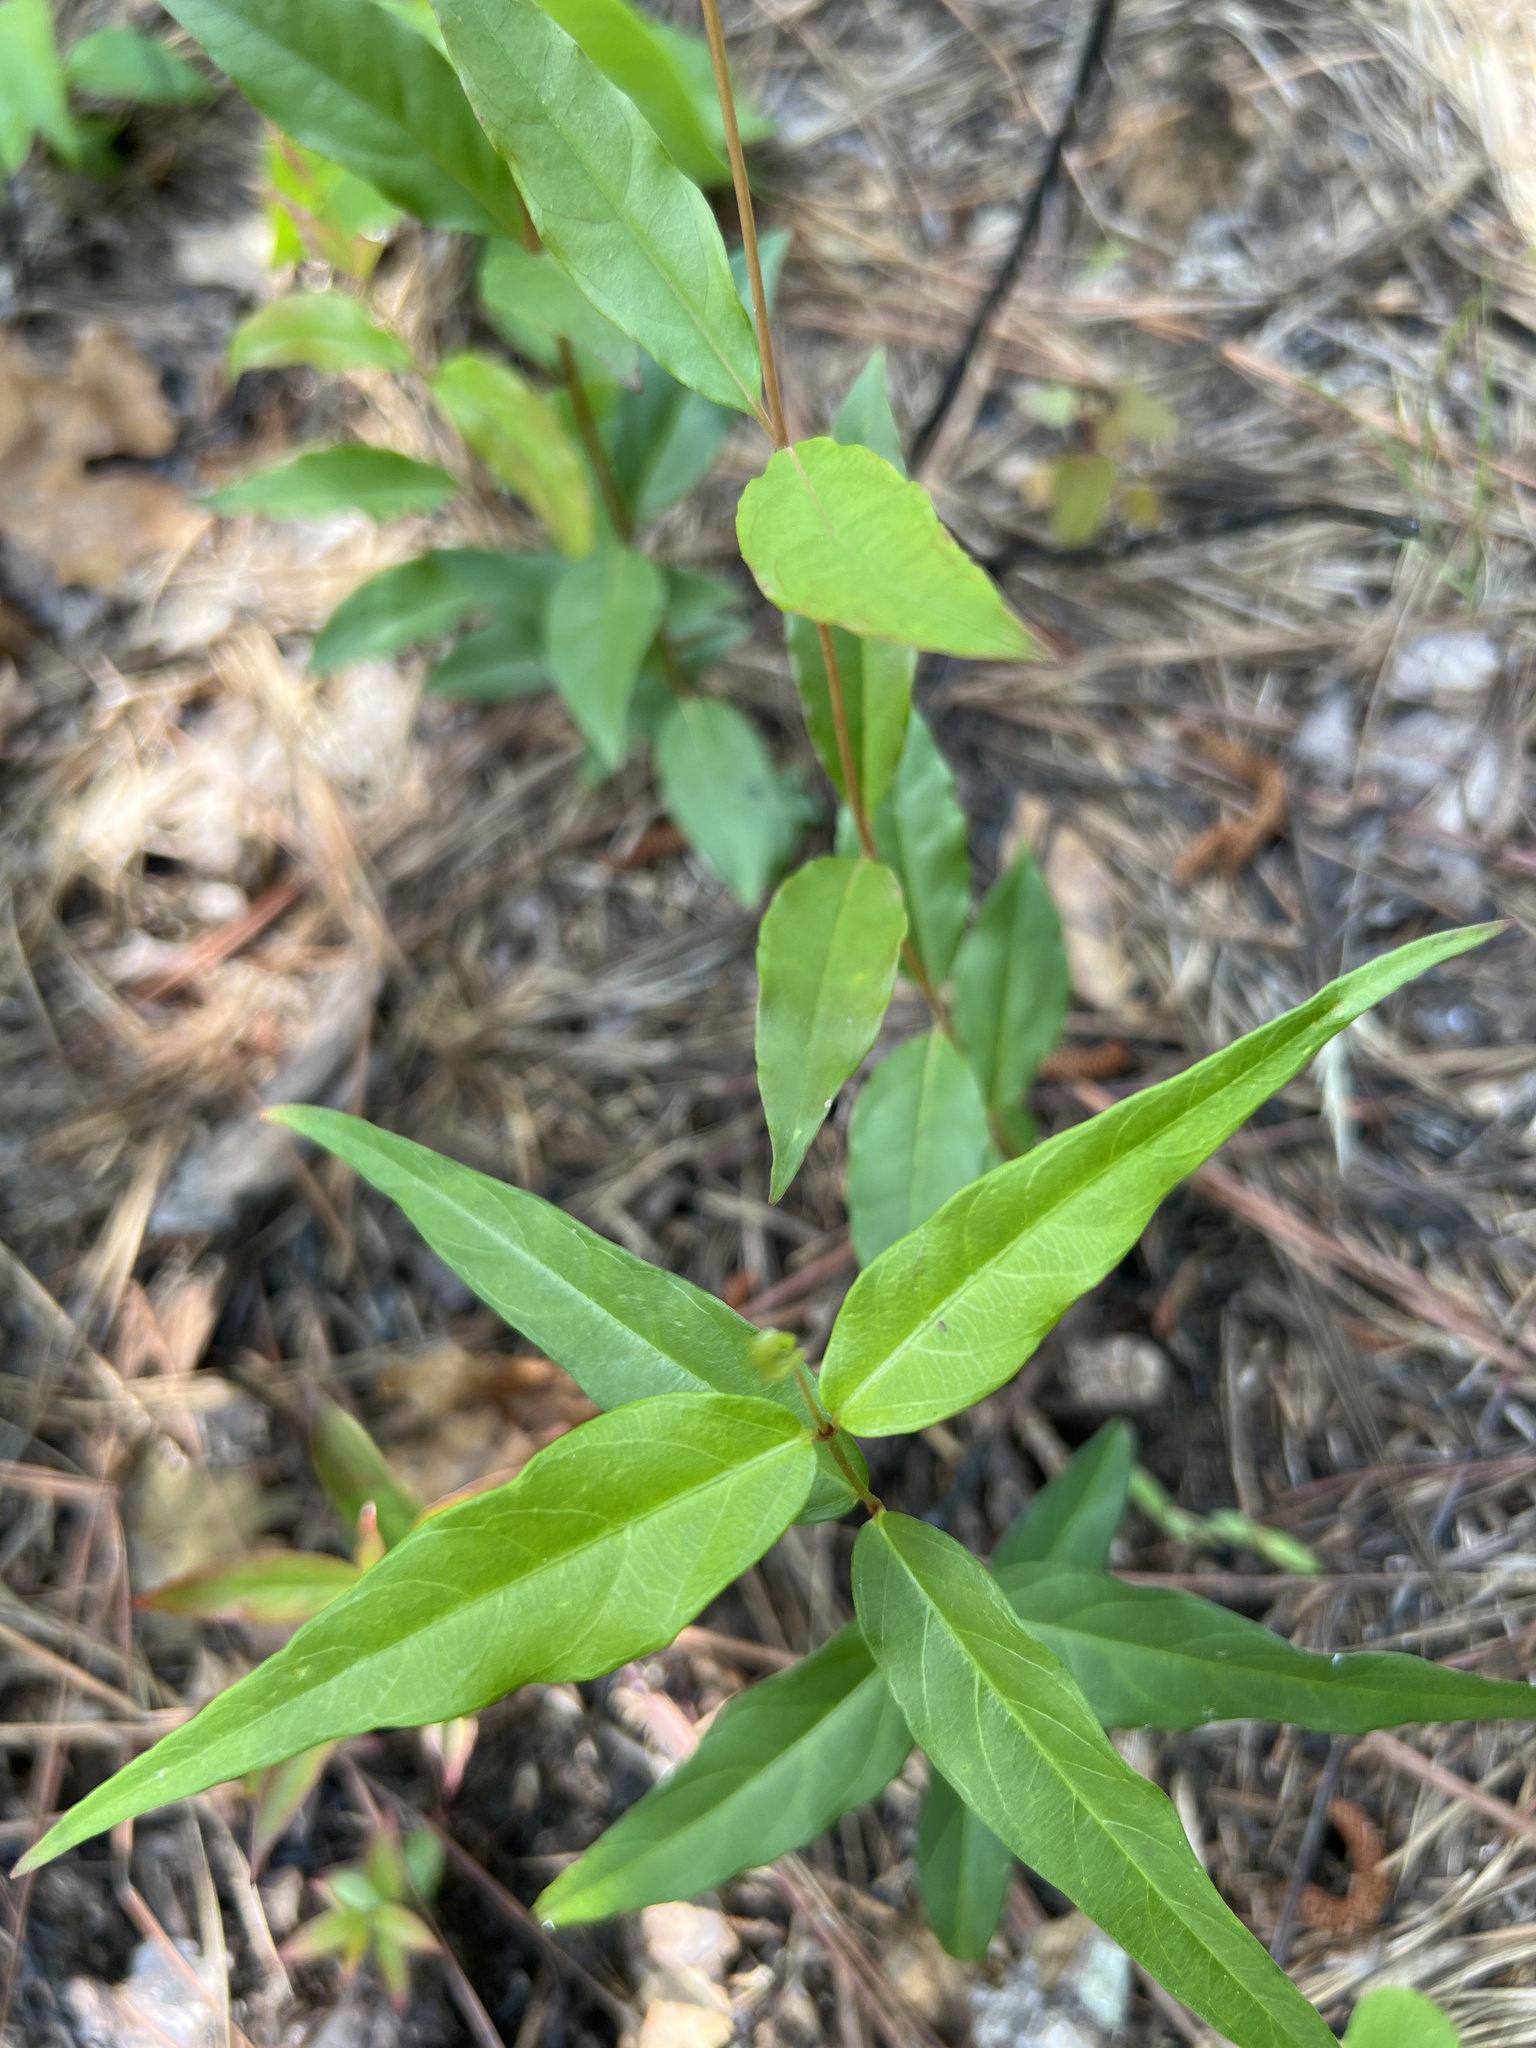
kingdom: Plantae
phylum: Tracheophyta
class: Magnoliopsida
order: Gentianales
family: Apocynaceae
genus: Thyrsanthella
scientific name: Thyrsanthella difformis
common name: Climbing dogbane
